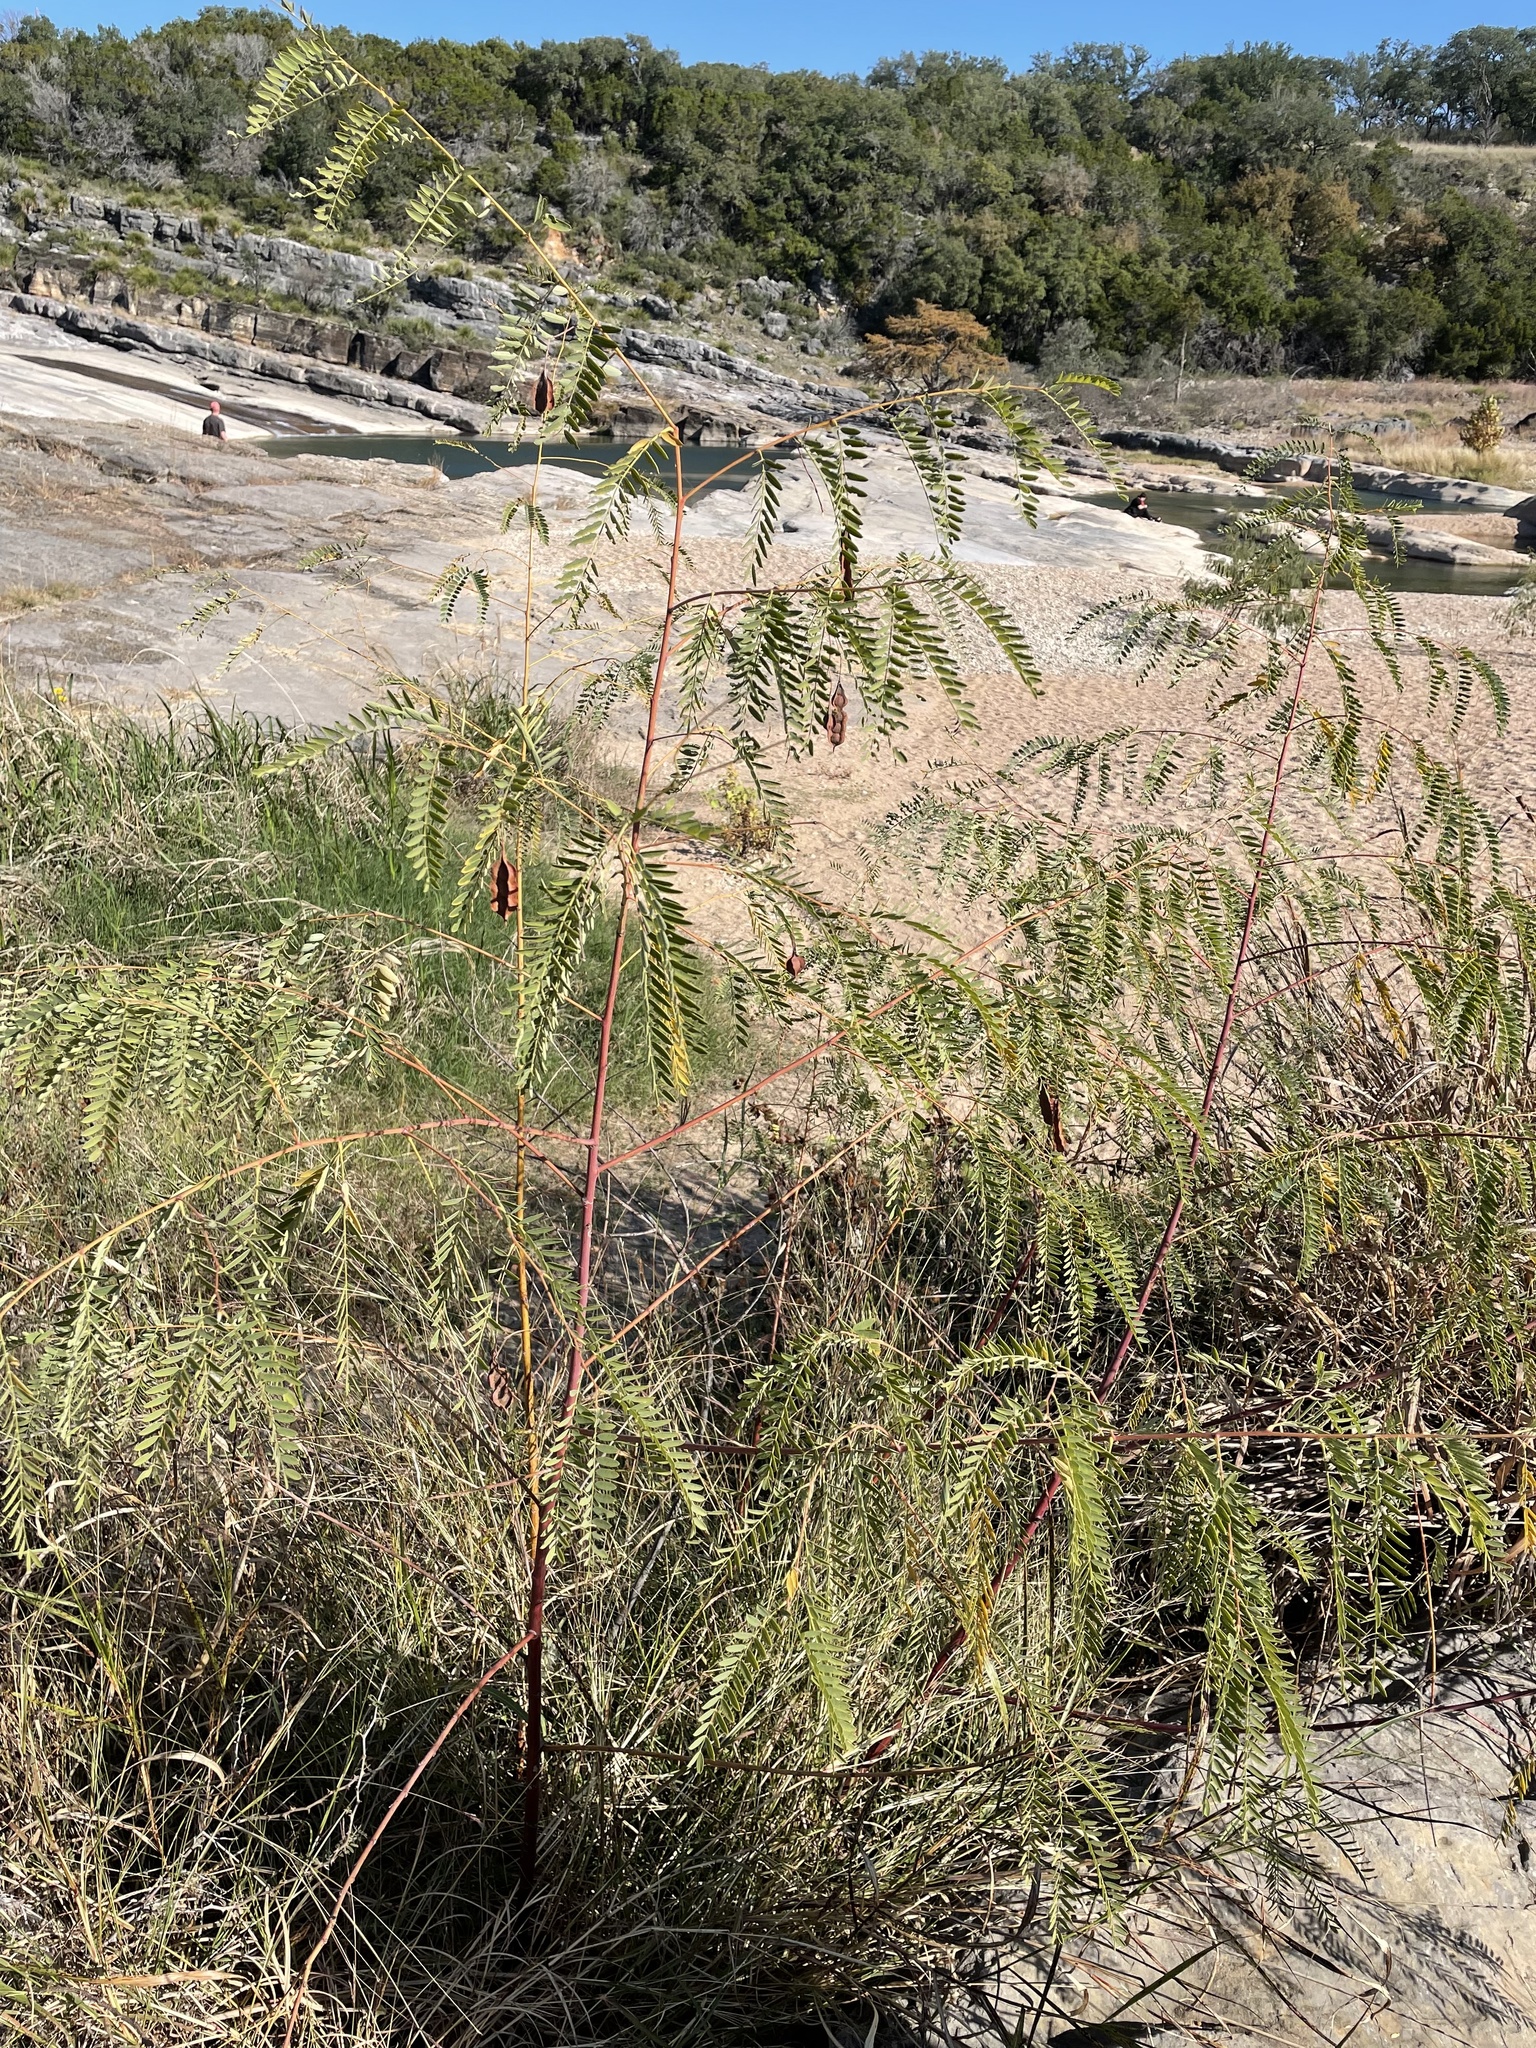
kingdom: Plantae
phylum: Tracheophyta
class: Magnoliopsida
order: Fabales
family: Fabaceae
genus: Sesbania
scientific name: Sesbania drummondii
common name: Poison-bean
